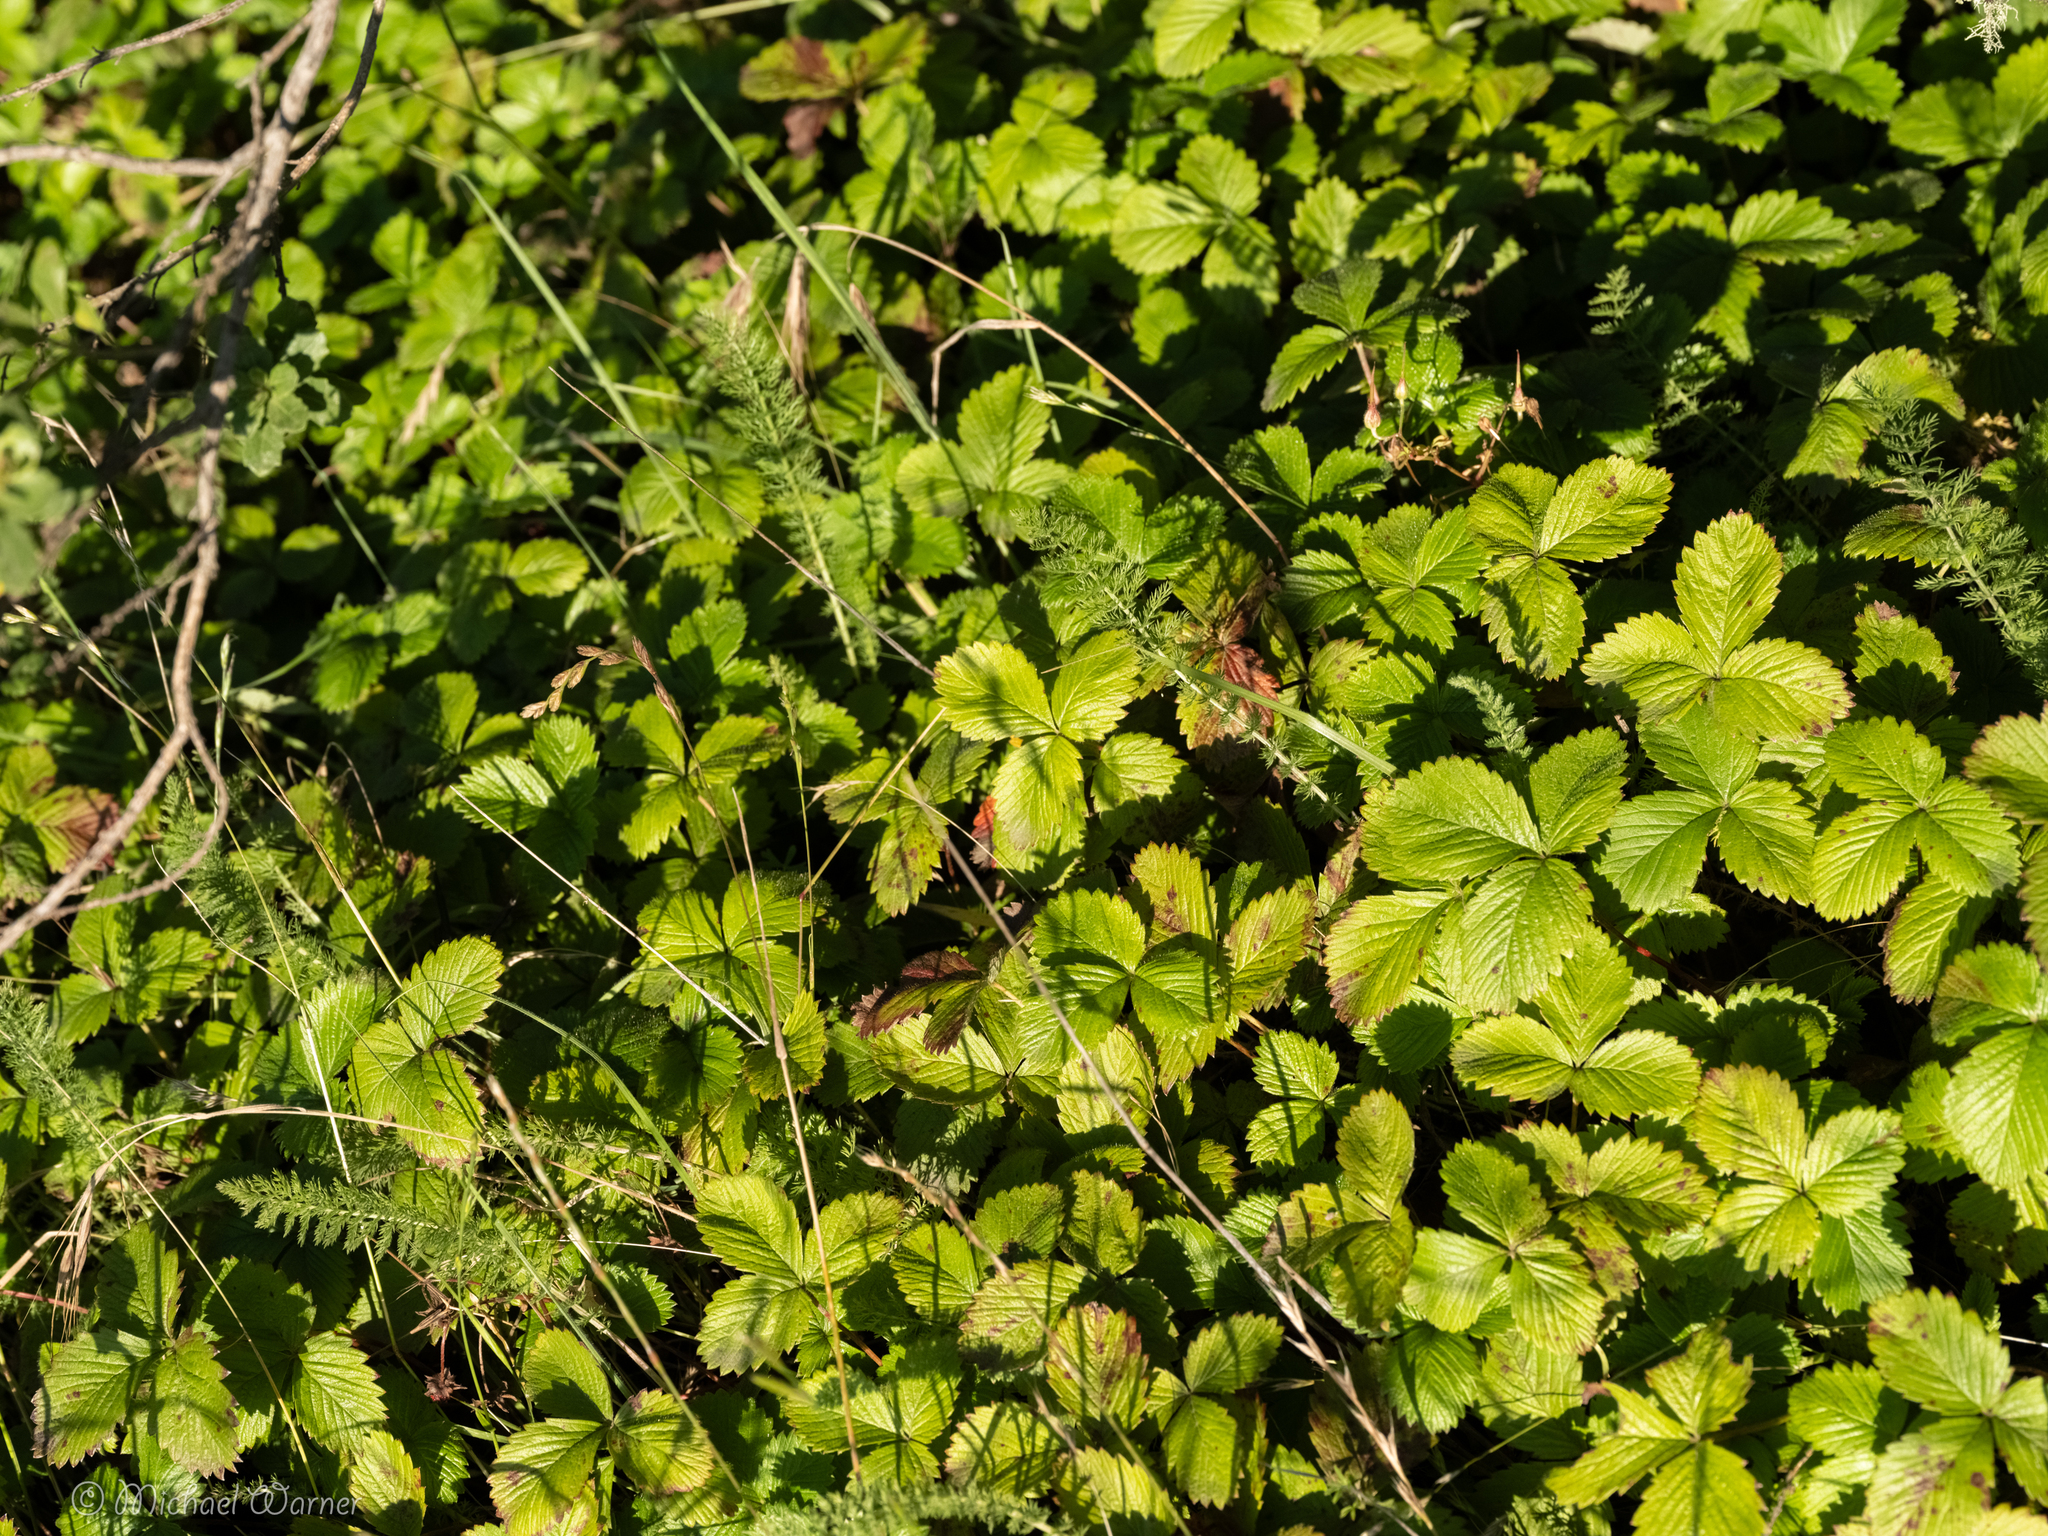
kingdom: Plantae
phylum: Tracheophyta
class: Magnoliopsida
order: Rosales
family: Rosaceae
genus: Fragaria
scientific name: Fragaria vesca
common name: Wild strawberry
